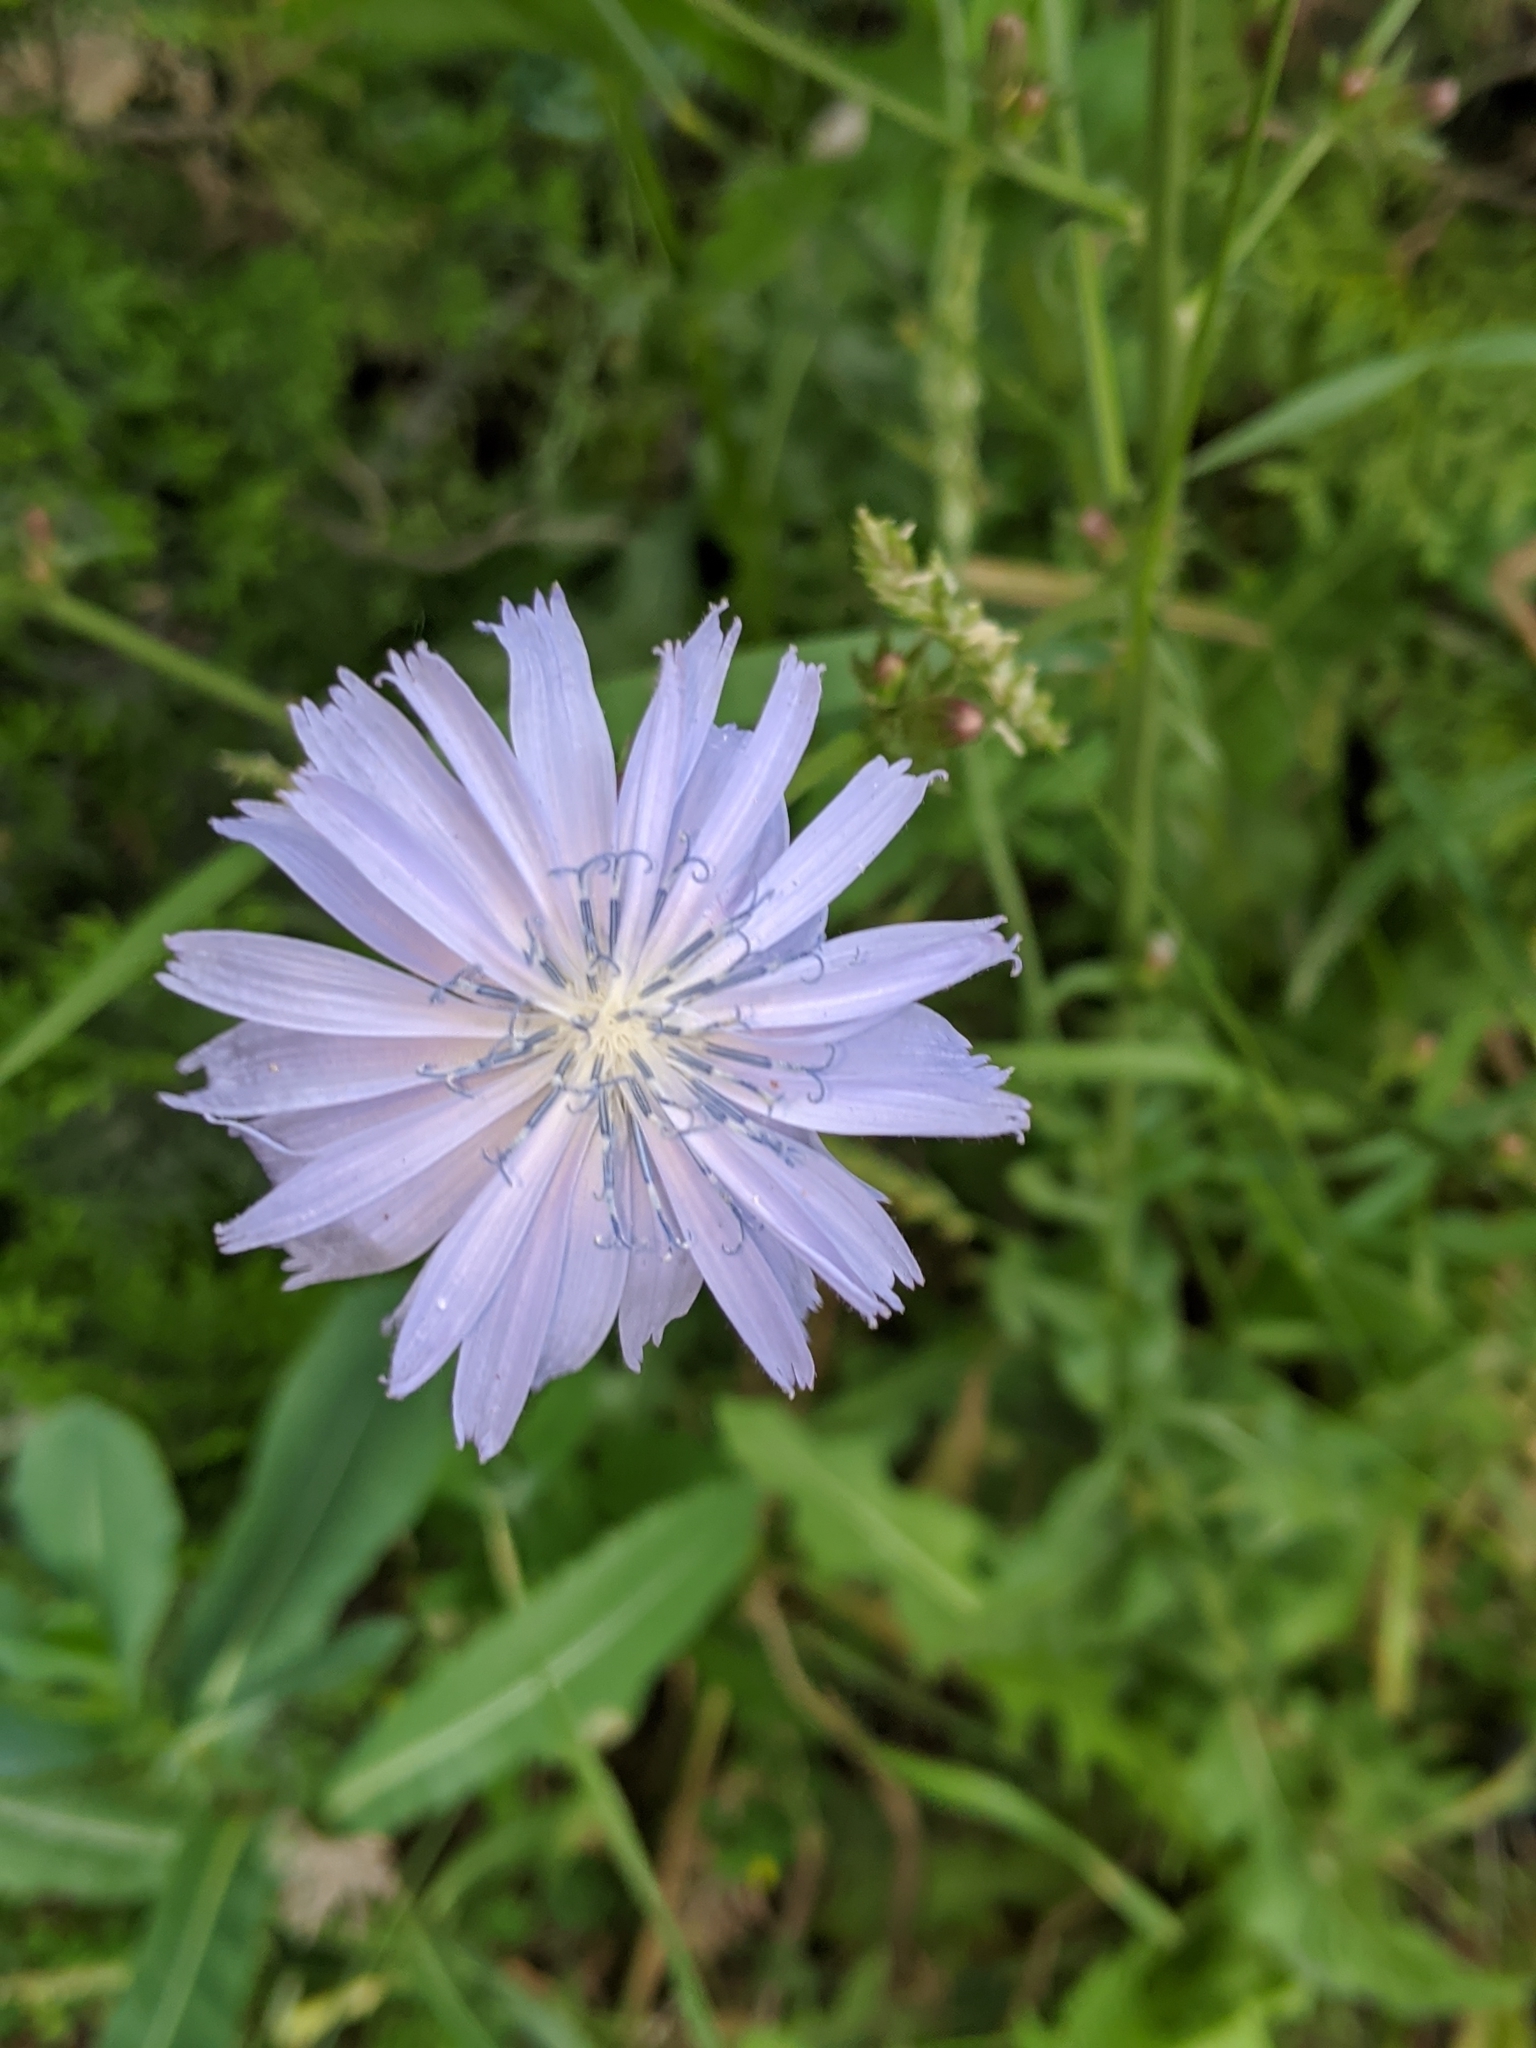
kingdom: Plantae
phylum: Tracheophyta
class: Magnoliopsida
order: Asterales
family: Asteraceae
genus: Cichorium
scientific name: Cichorium intybus
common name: Chicory
